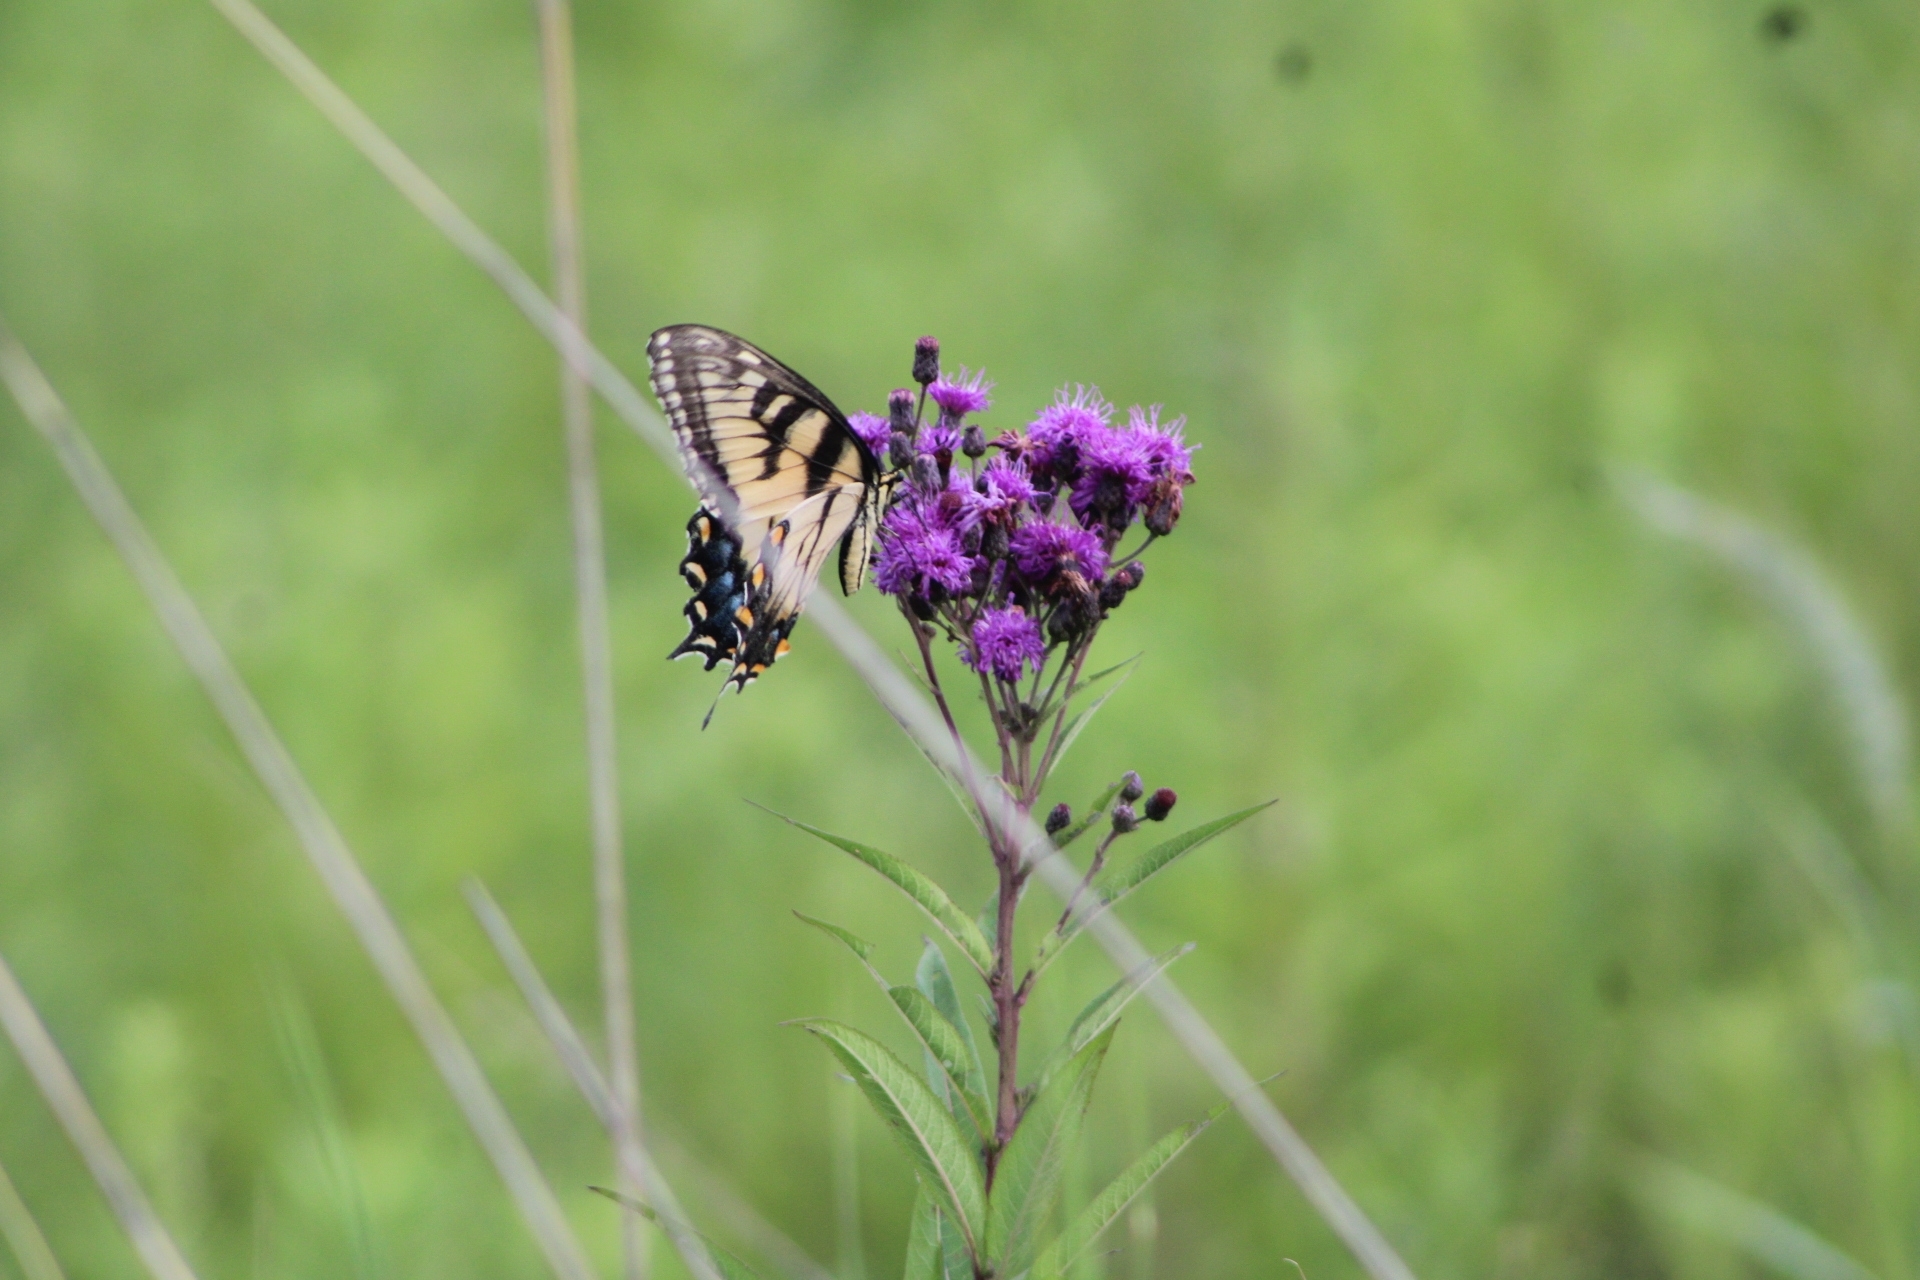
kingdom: Animalia
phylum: Arthropoda
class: Insecta
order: Lepidoptera
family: Papilionidae
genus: Papilio
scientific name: Papilio glaucus
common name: Tiger swallowtail
